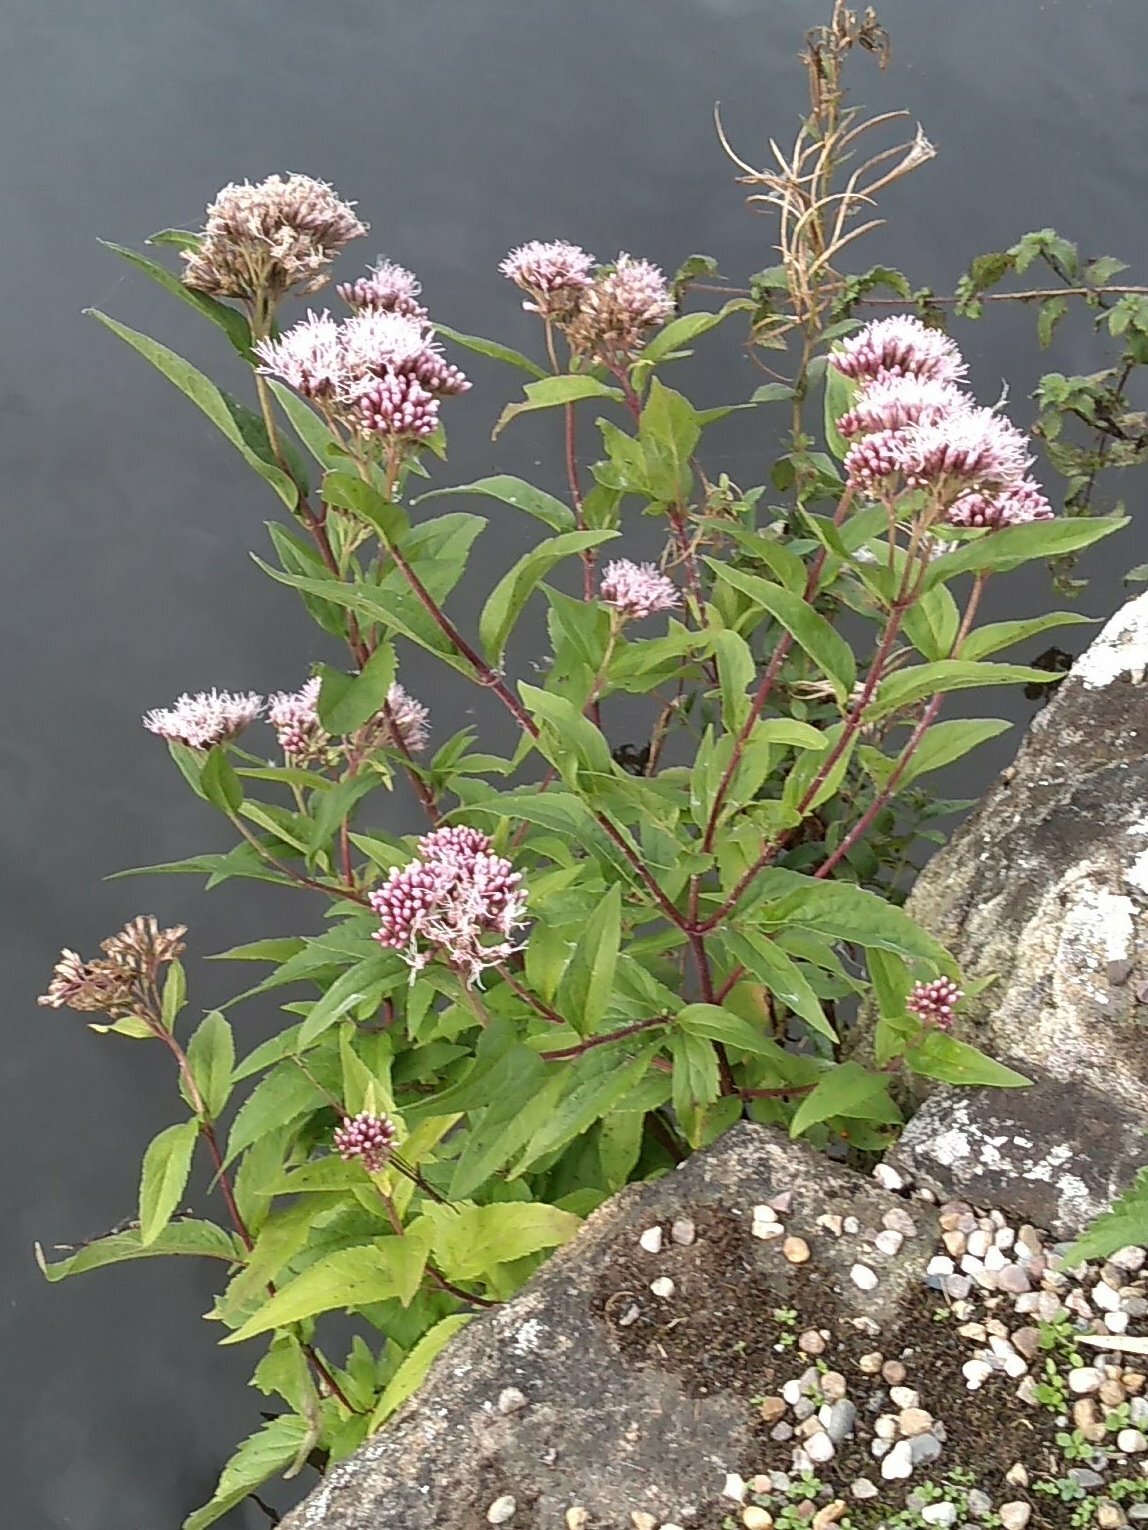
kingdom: Plantae
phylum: Tracheophyta
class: Magnoliopsida
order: Asterales
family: Asteraceae
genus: Eupatorium
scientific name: Eupatorium cannabinum
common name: Hemp-agrimony
